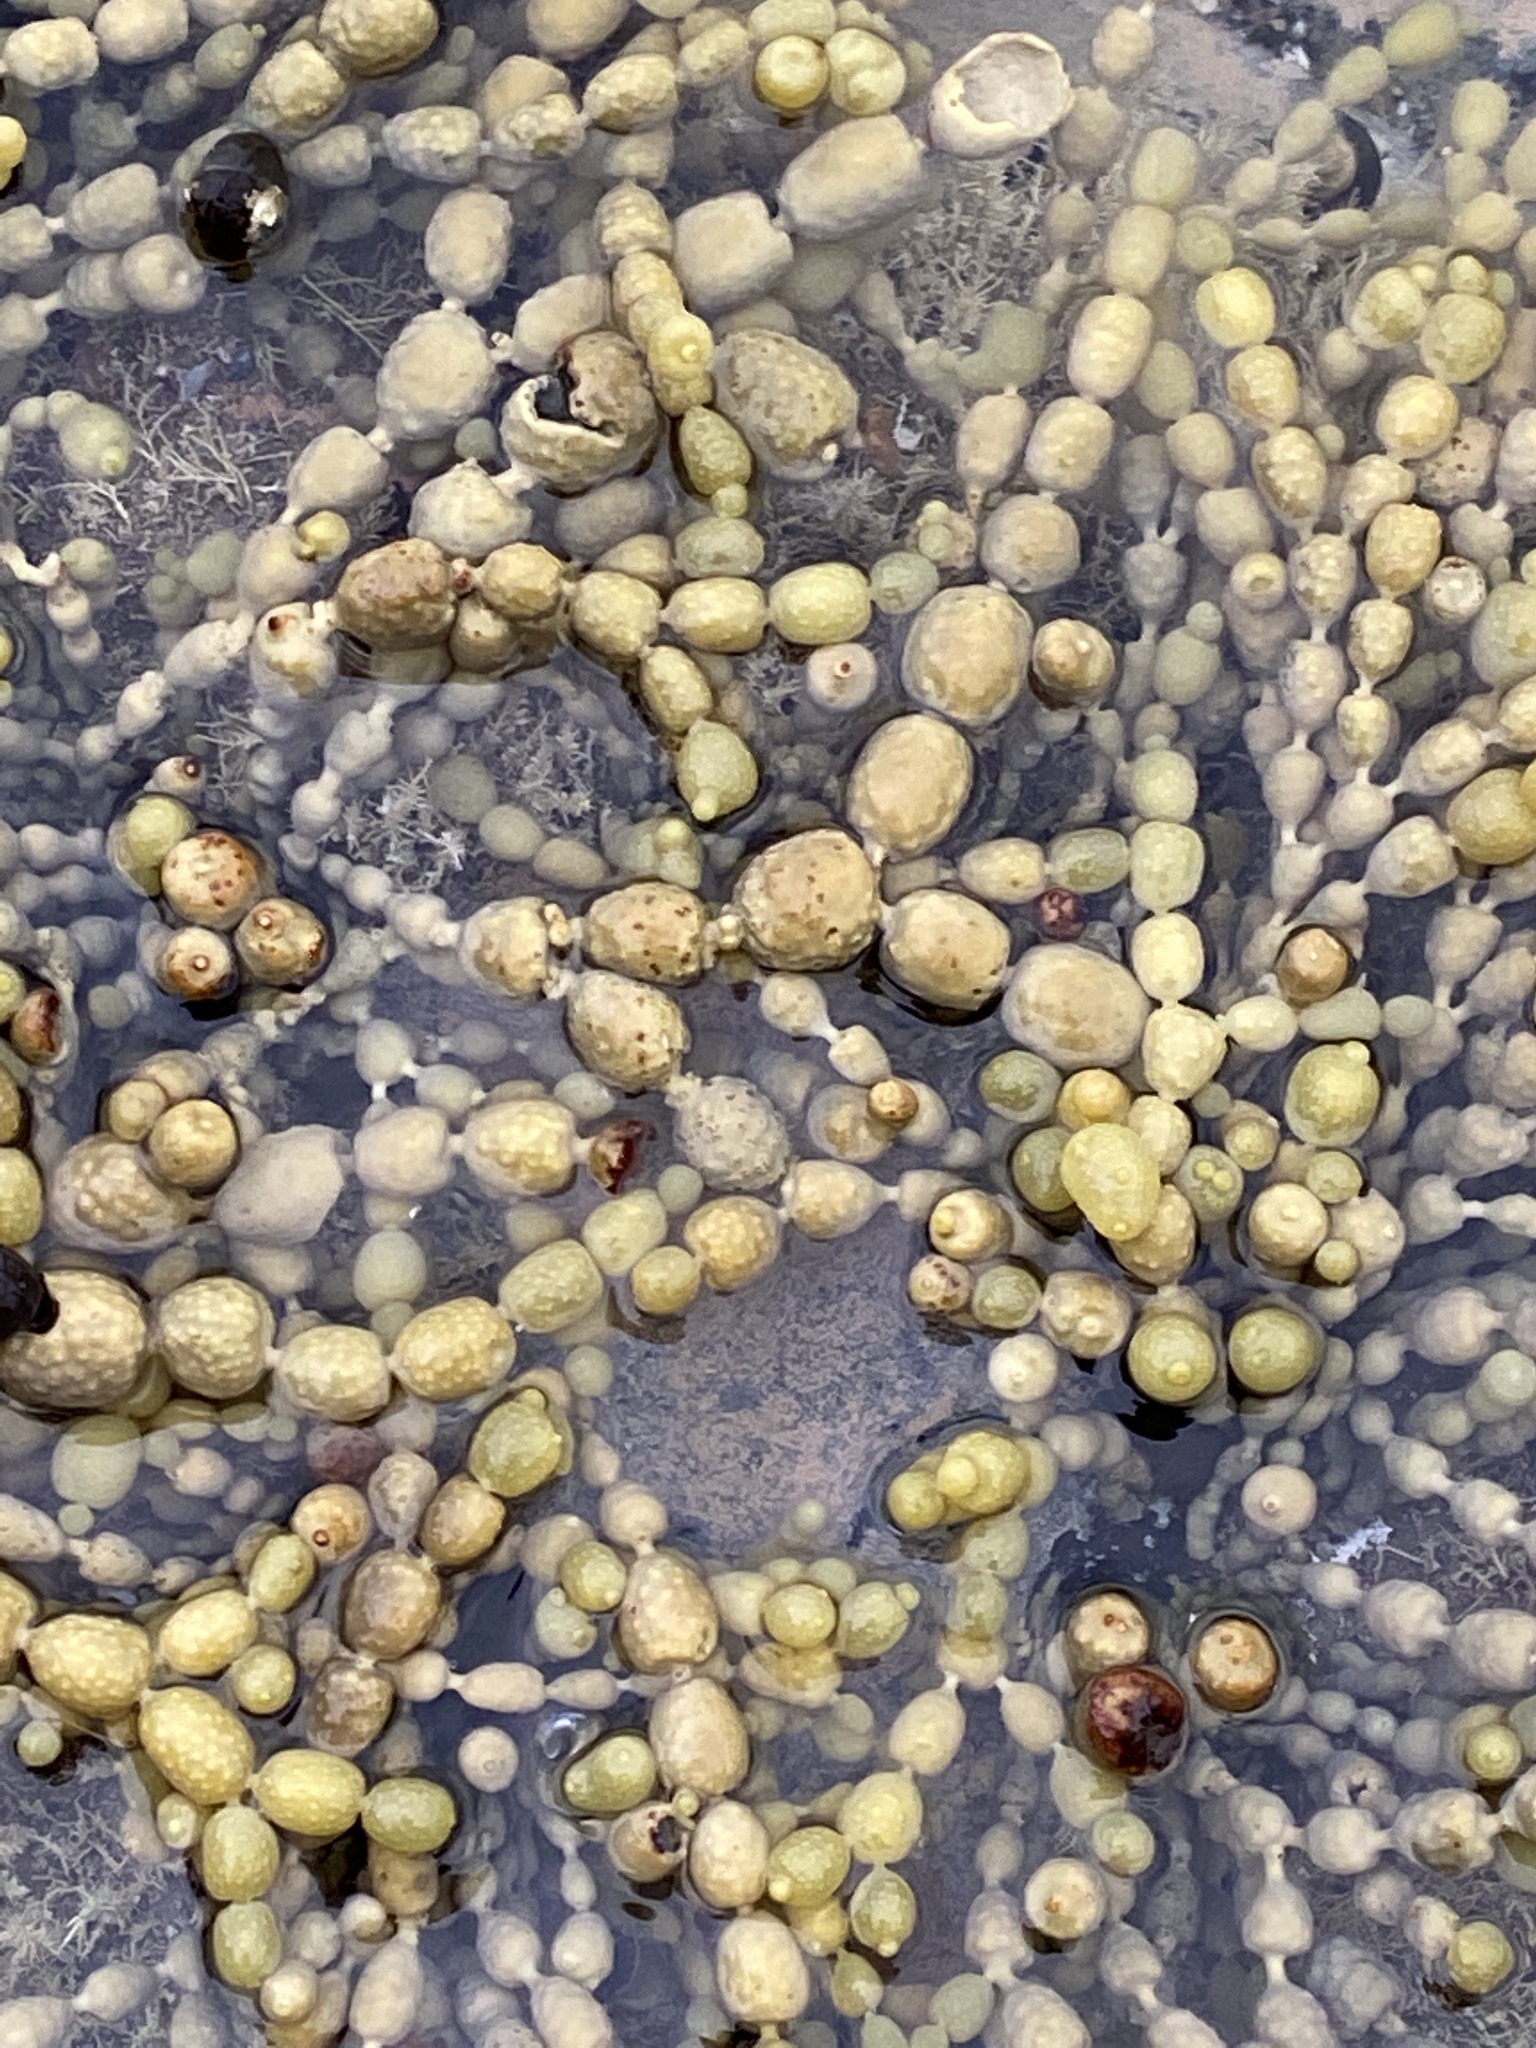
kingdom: Chromista
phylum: Ochrophyta
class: Phaeophyceae
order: Fucales
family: Hormosiraceae
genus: Hormosira
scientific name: Hormosira banksii
